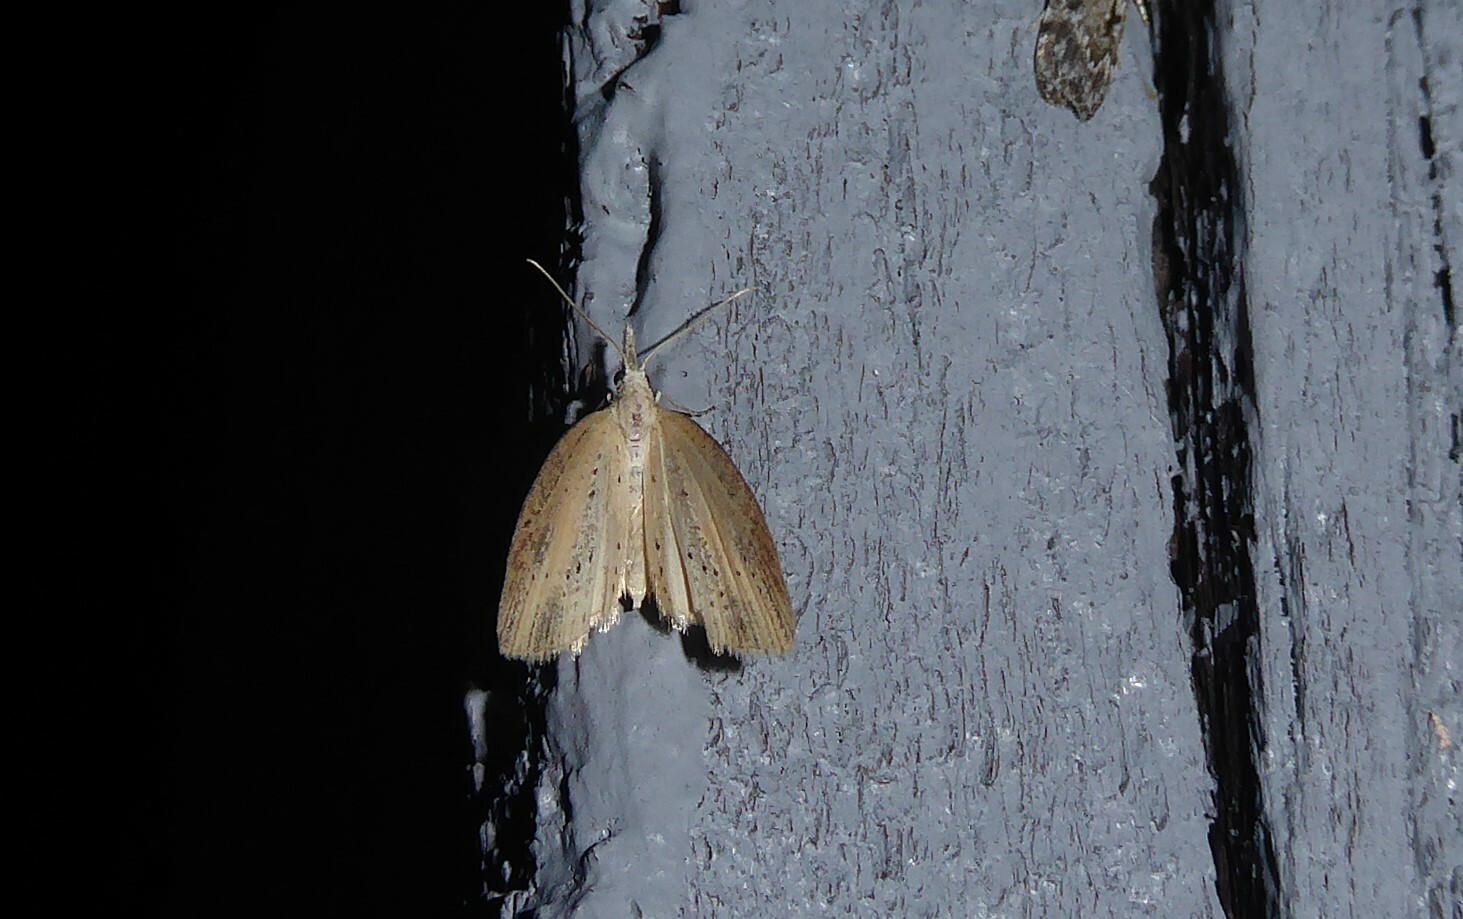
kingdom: Animalia
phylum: Arthropoda
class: Insecta
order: Lepidoptera
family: Geometridae
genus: Microdes
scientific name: Microdes epicryptis
